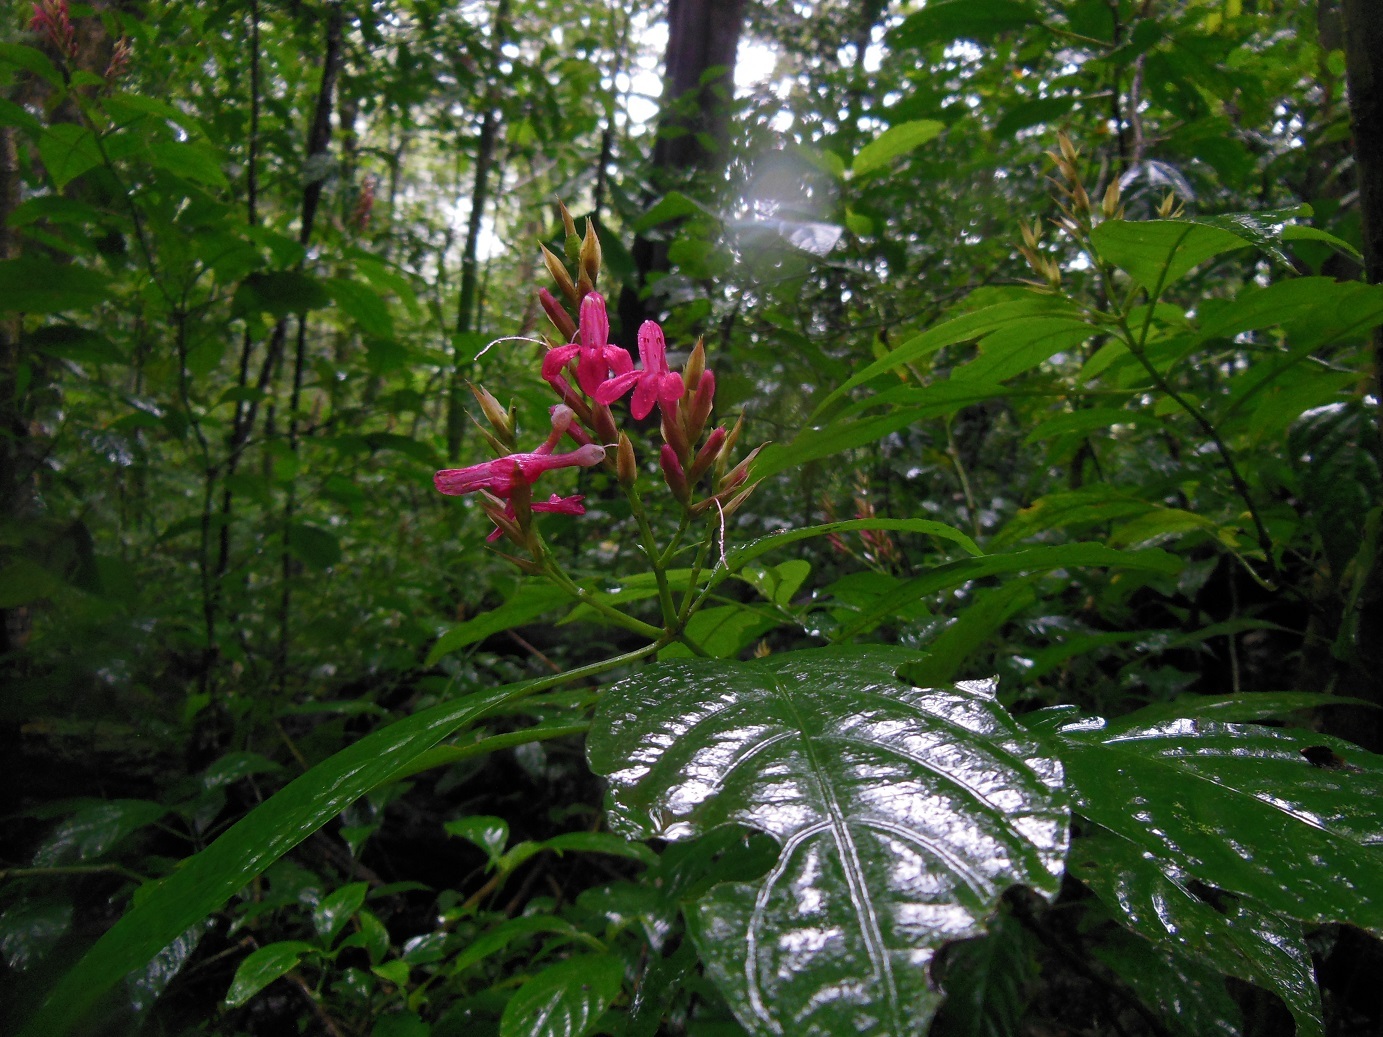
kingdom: Plantae
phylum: Tracheophyta
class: Magnoliopsida
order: Lamiales
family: Acanthaceae
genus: Lepidagathis
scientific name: Lepidagathis chiapensis
